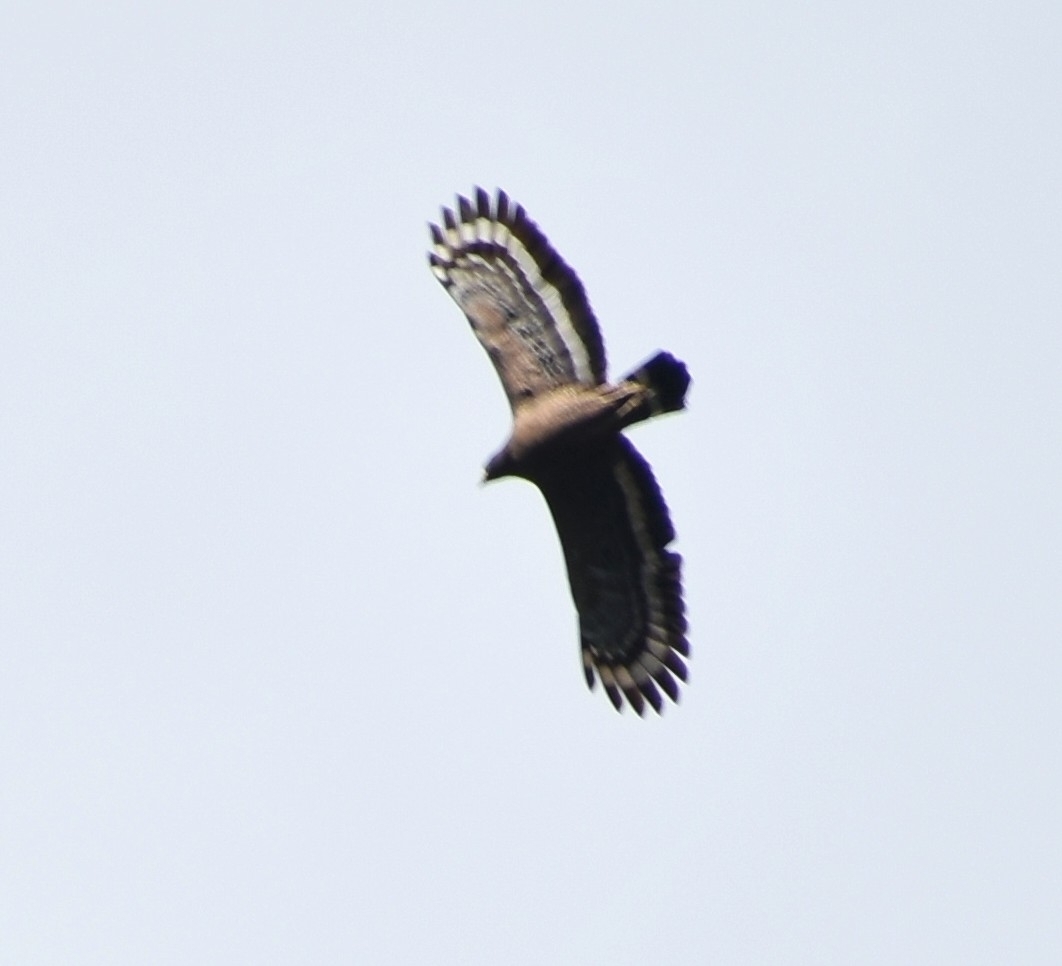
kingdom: Animalia
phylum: Chordata
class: Aves
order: Accipitriformes
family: Accipitridae
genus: Spilornis
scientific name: Spilornis cheela
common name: Crested serpent eagle
